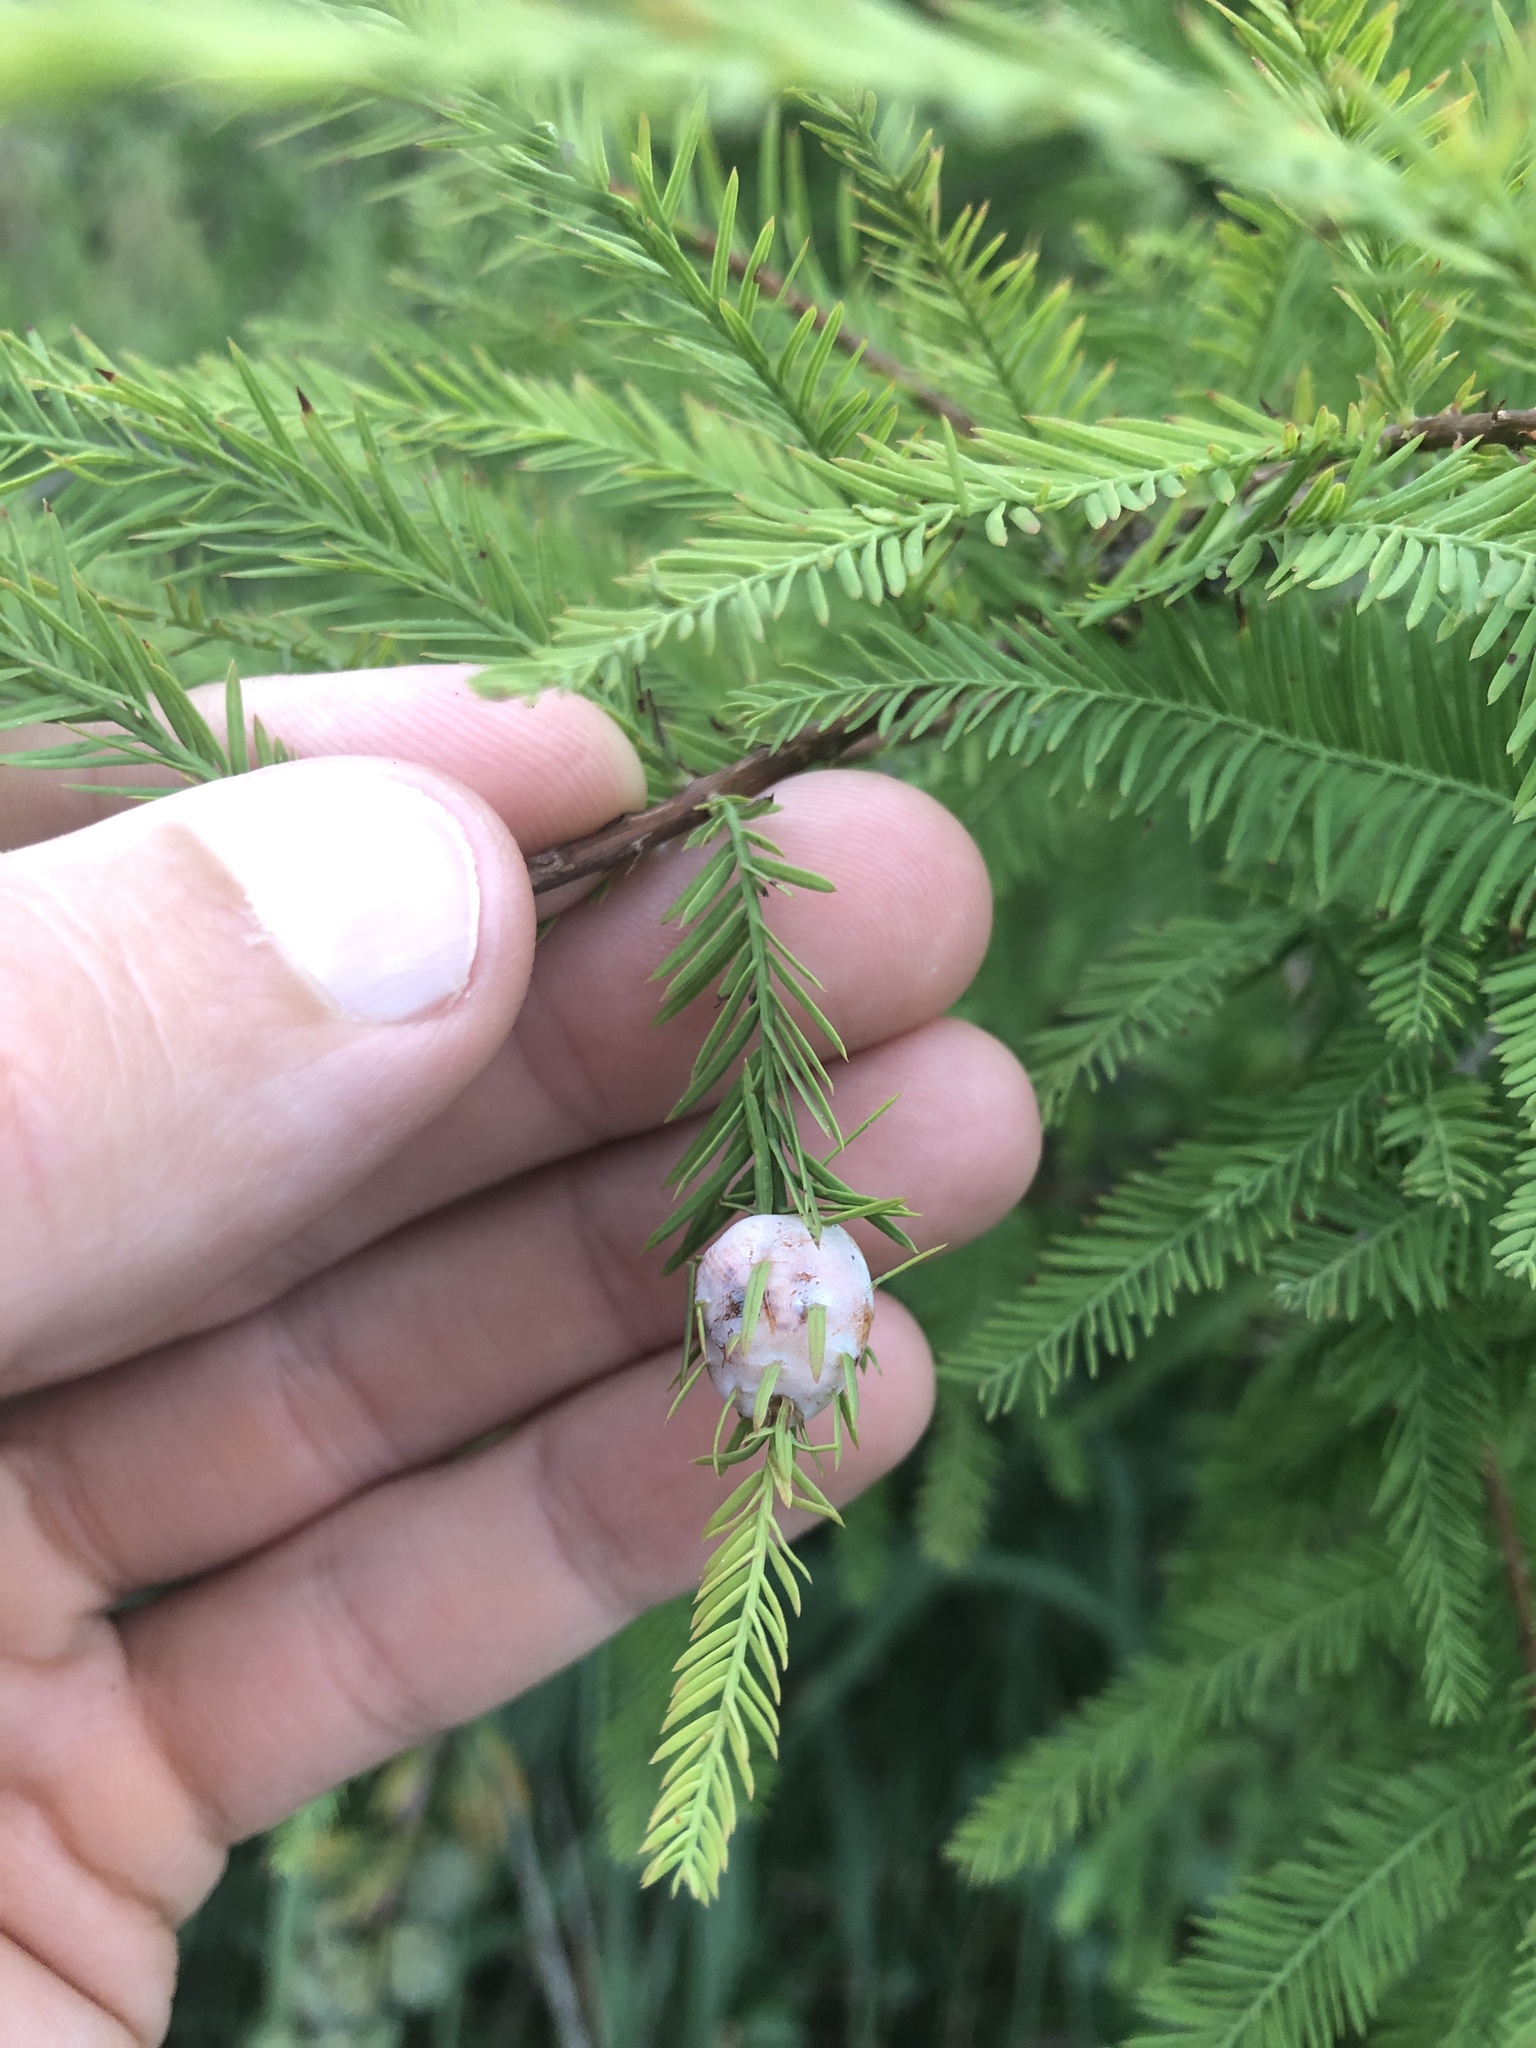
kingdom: Animalia
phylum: Arthropoda
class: Insecta
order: Diptera
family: Cecidomyiidae
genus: Taxodiomyia
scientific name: Taxodiomyia cupressiananassa
